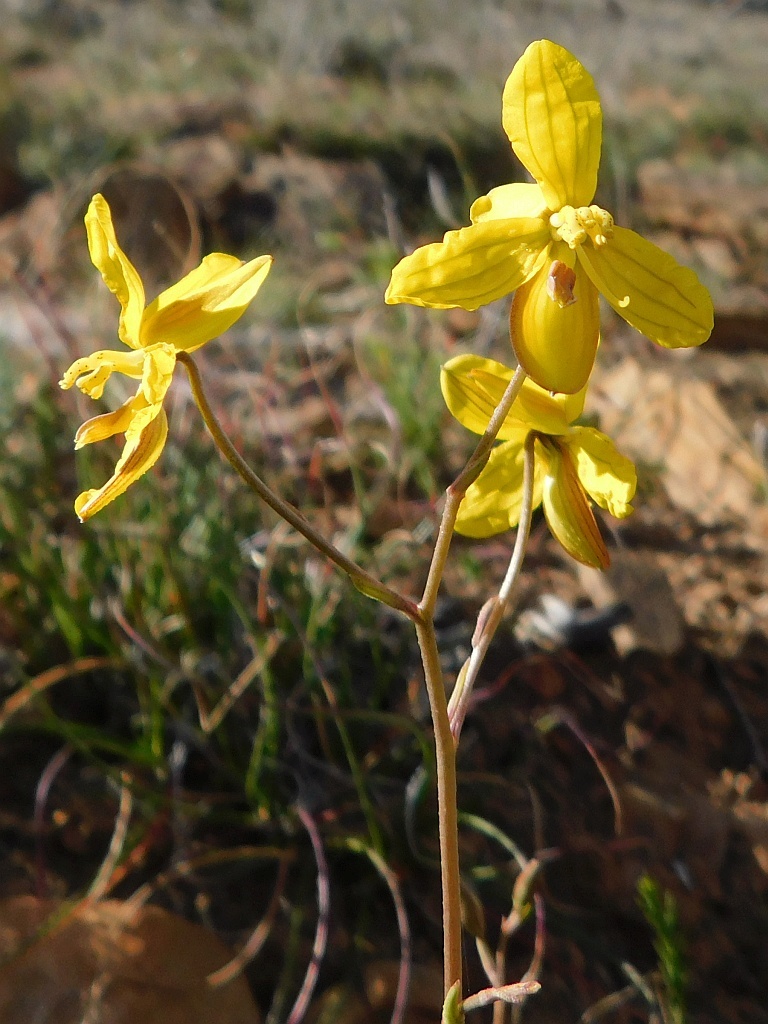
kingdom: Plantae
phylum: Tracheophyta
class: Liliopsida
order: Asparagales
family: Tecophilaeaceae
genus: Cyanella
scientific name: Cyanella lutea
